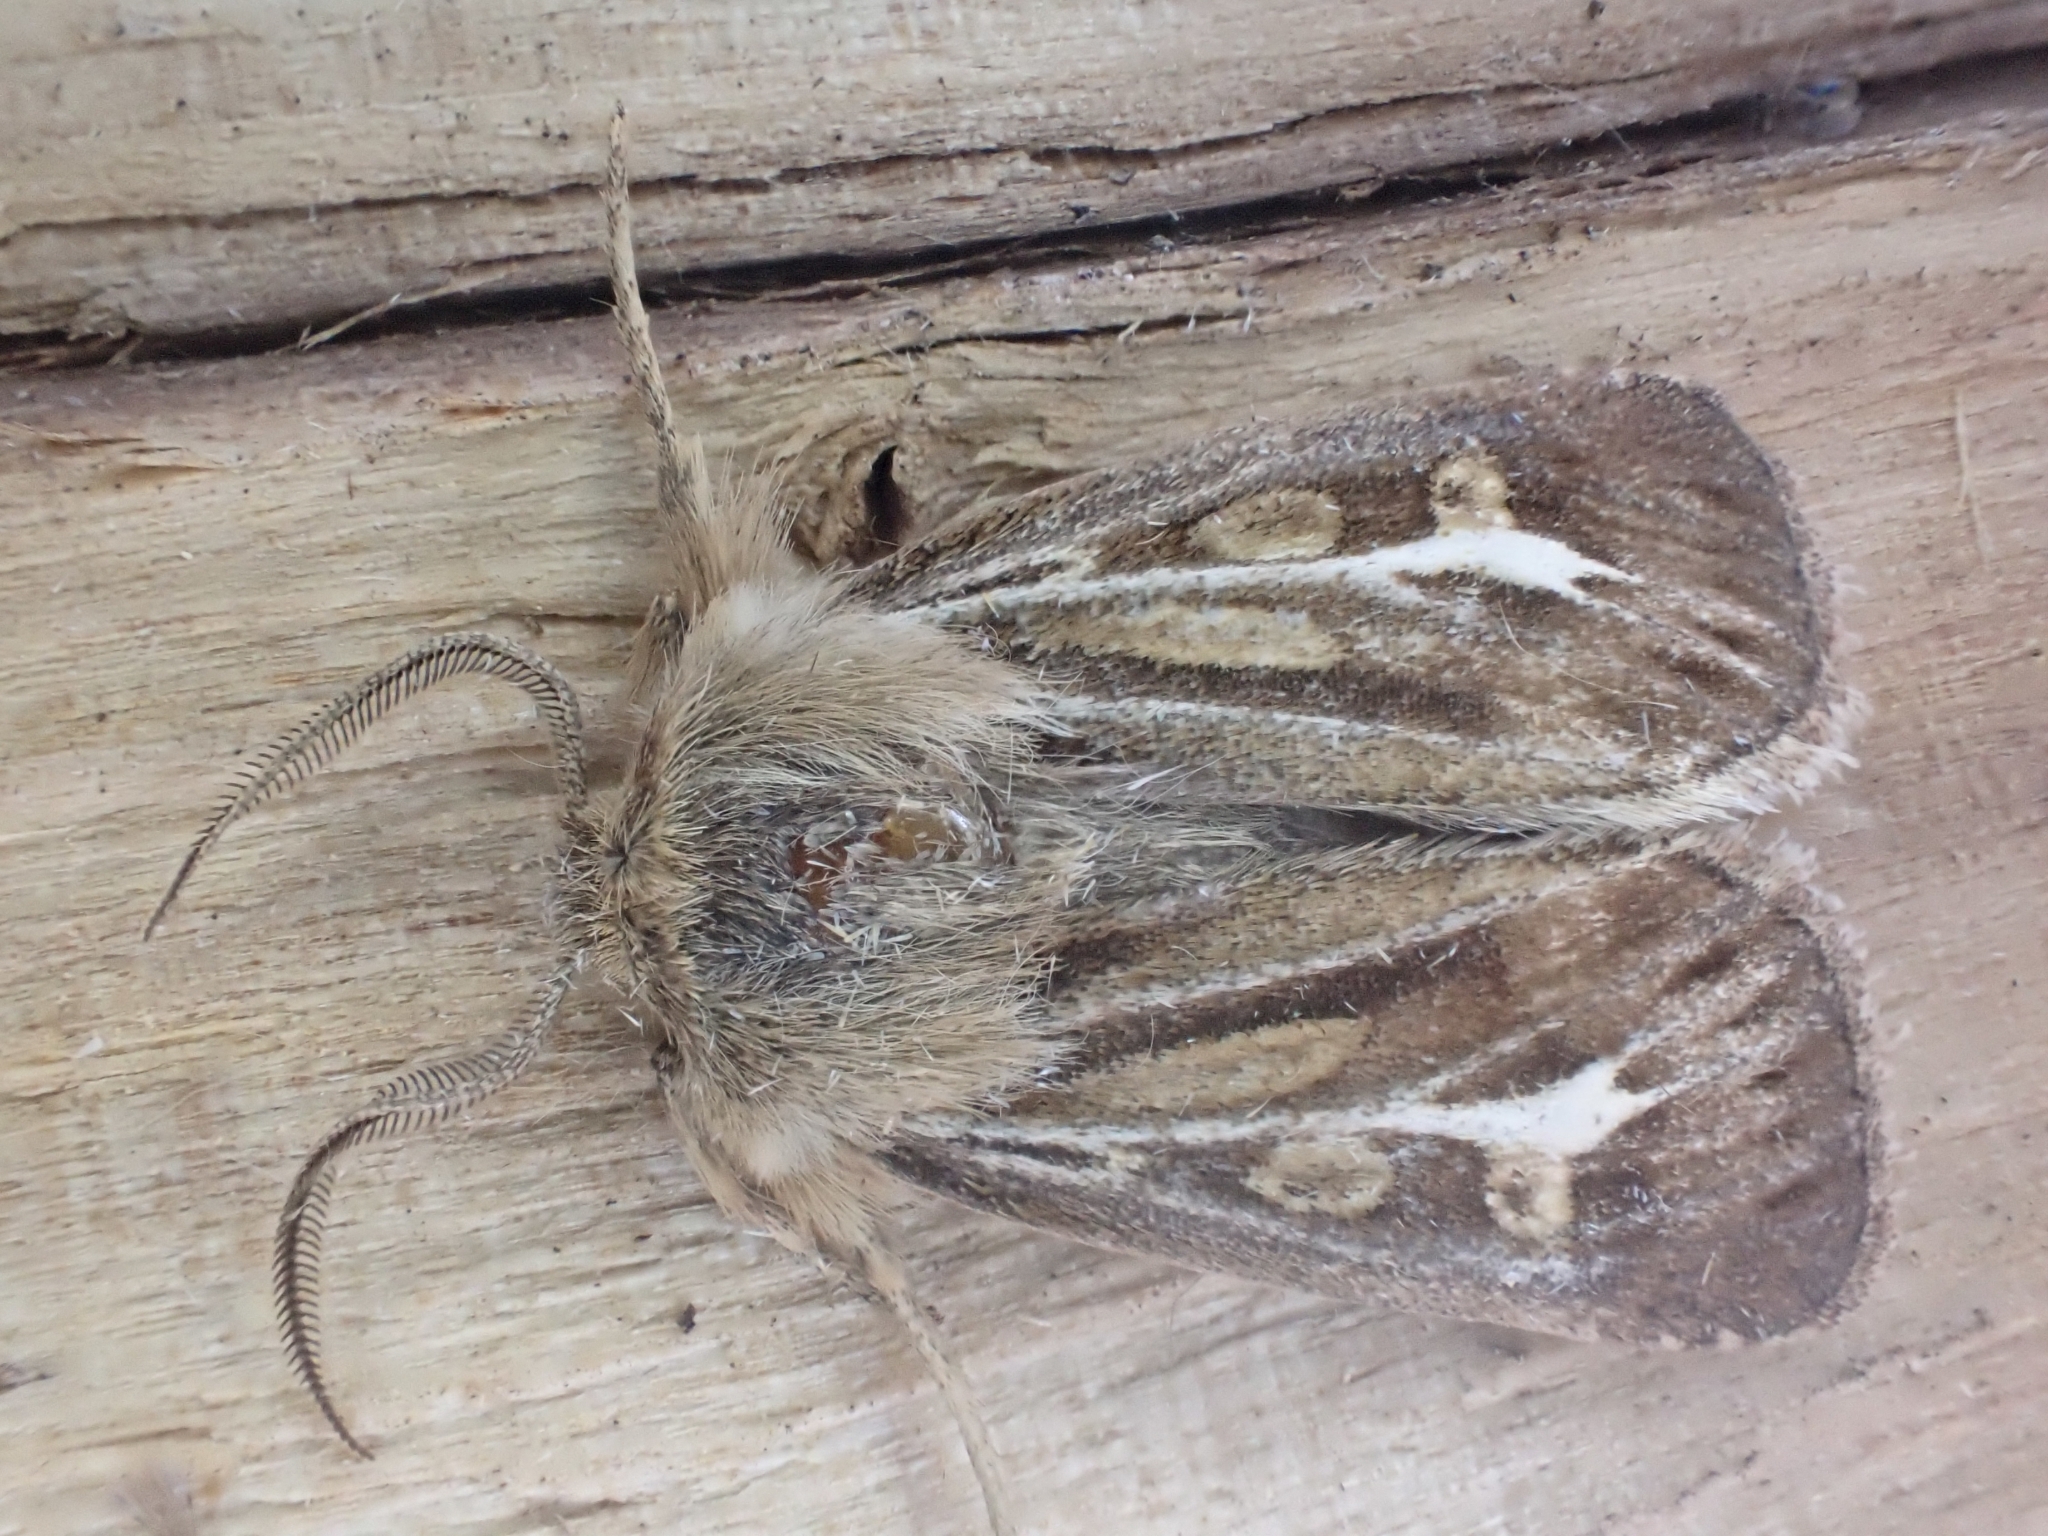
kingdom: Animalia
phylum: Arthropoda
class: Insecta
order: Lepidoptera
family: Noctuidae
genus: Cerapteryx
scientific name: Cerapteryx graminis
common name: Antler moth
